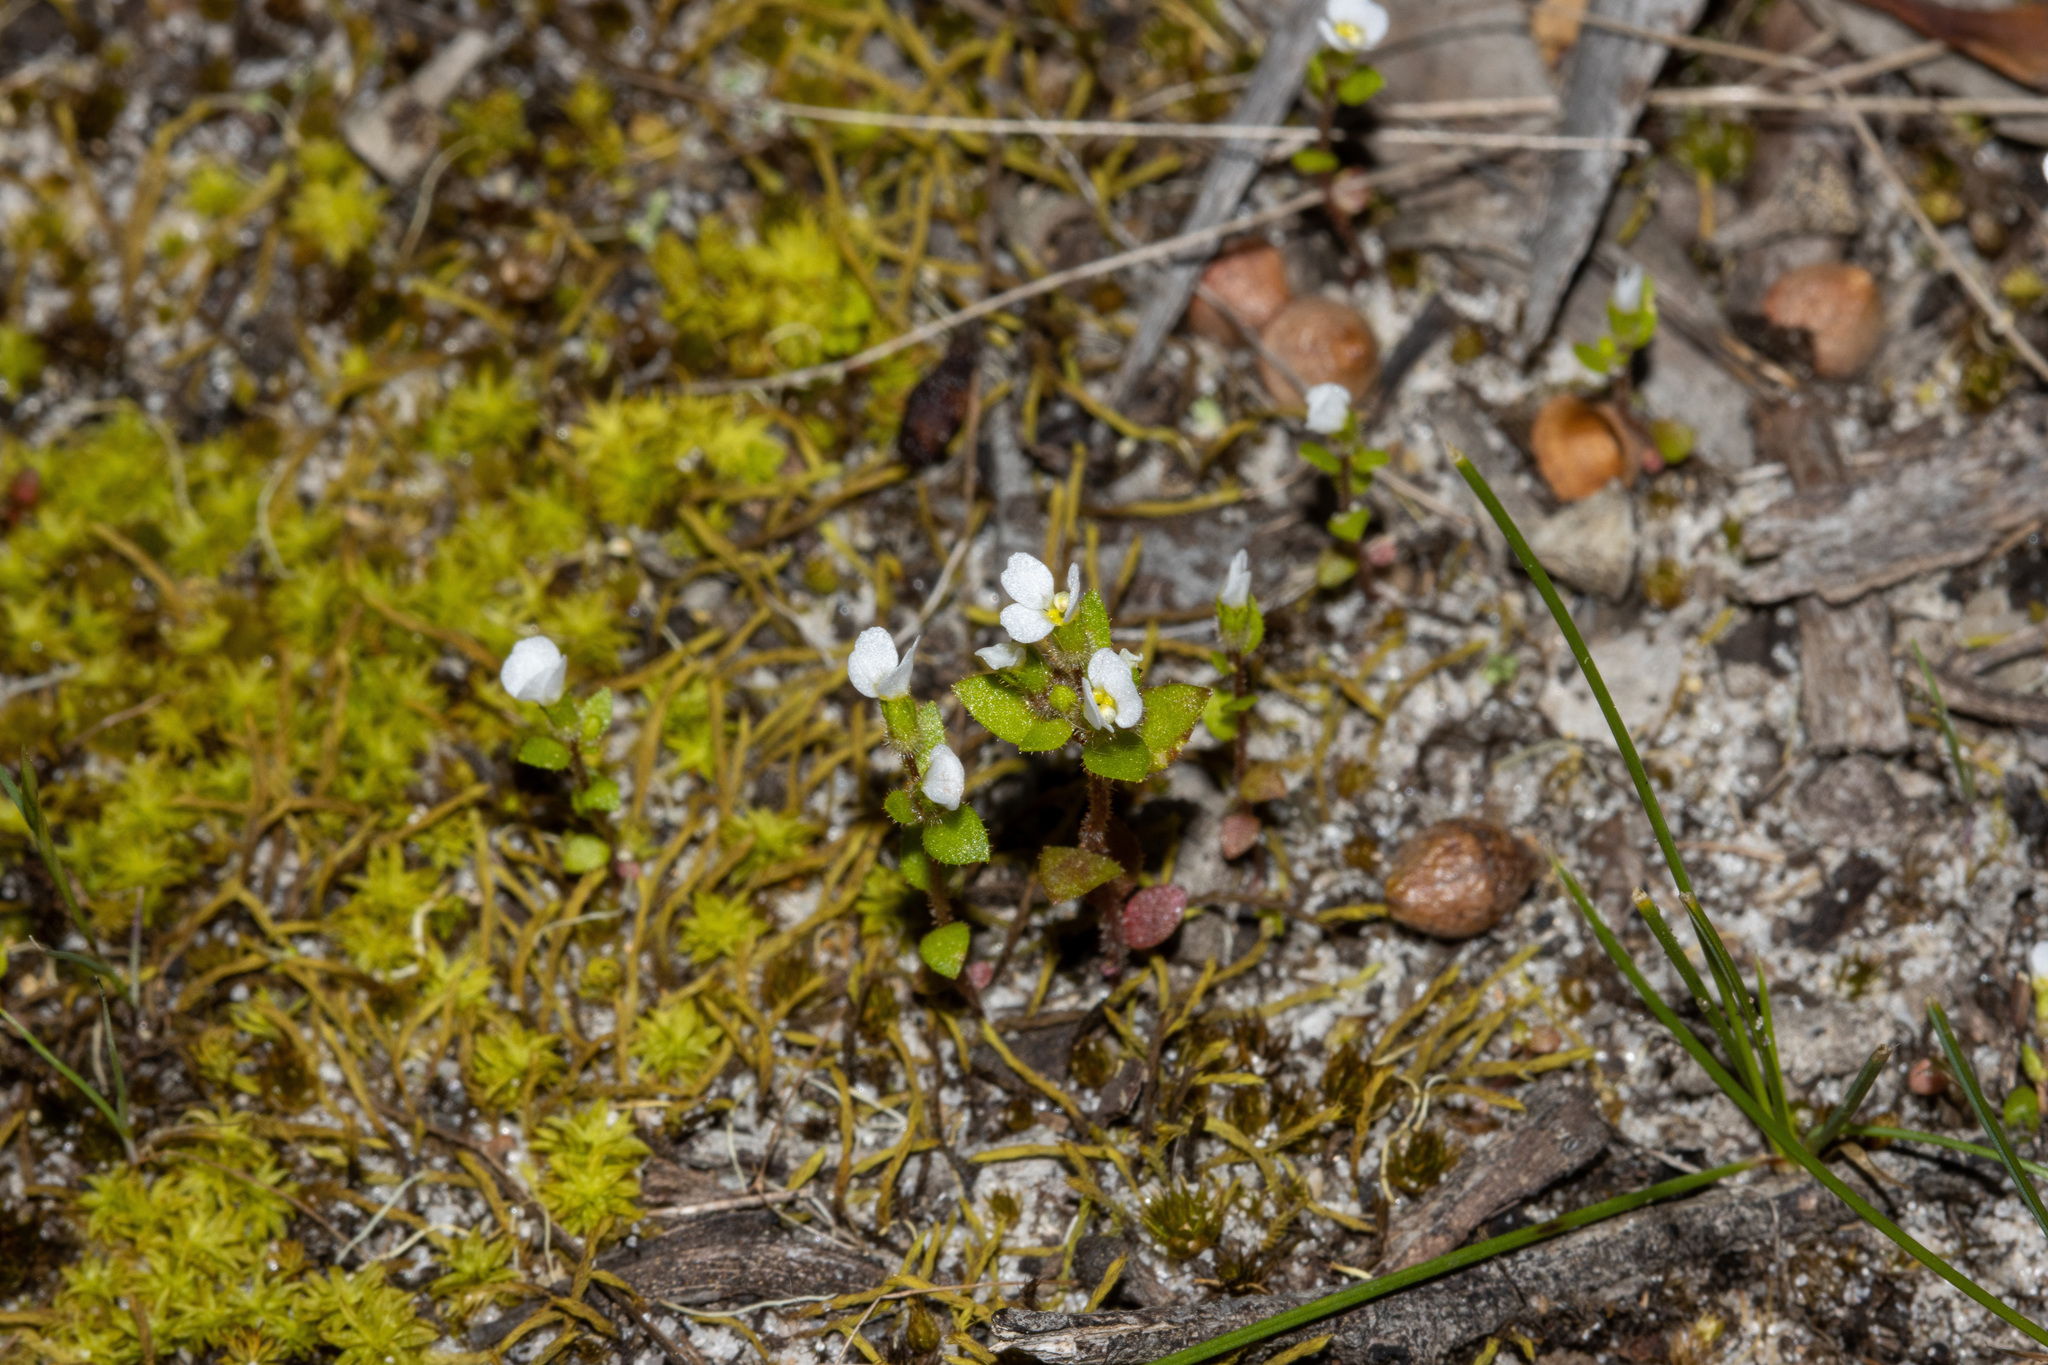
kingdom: Plantae
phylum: Tracheophyta
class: Magnoliopsida
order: Asterales
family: Stylidiaceae
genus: Levenhookia
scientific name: Levenhookia dubia
